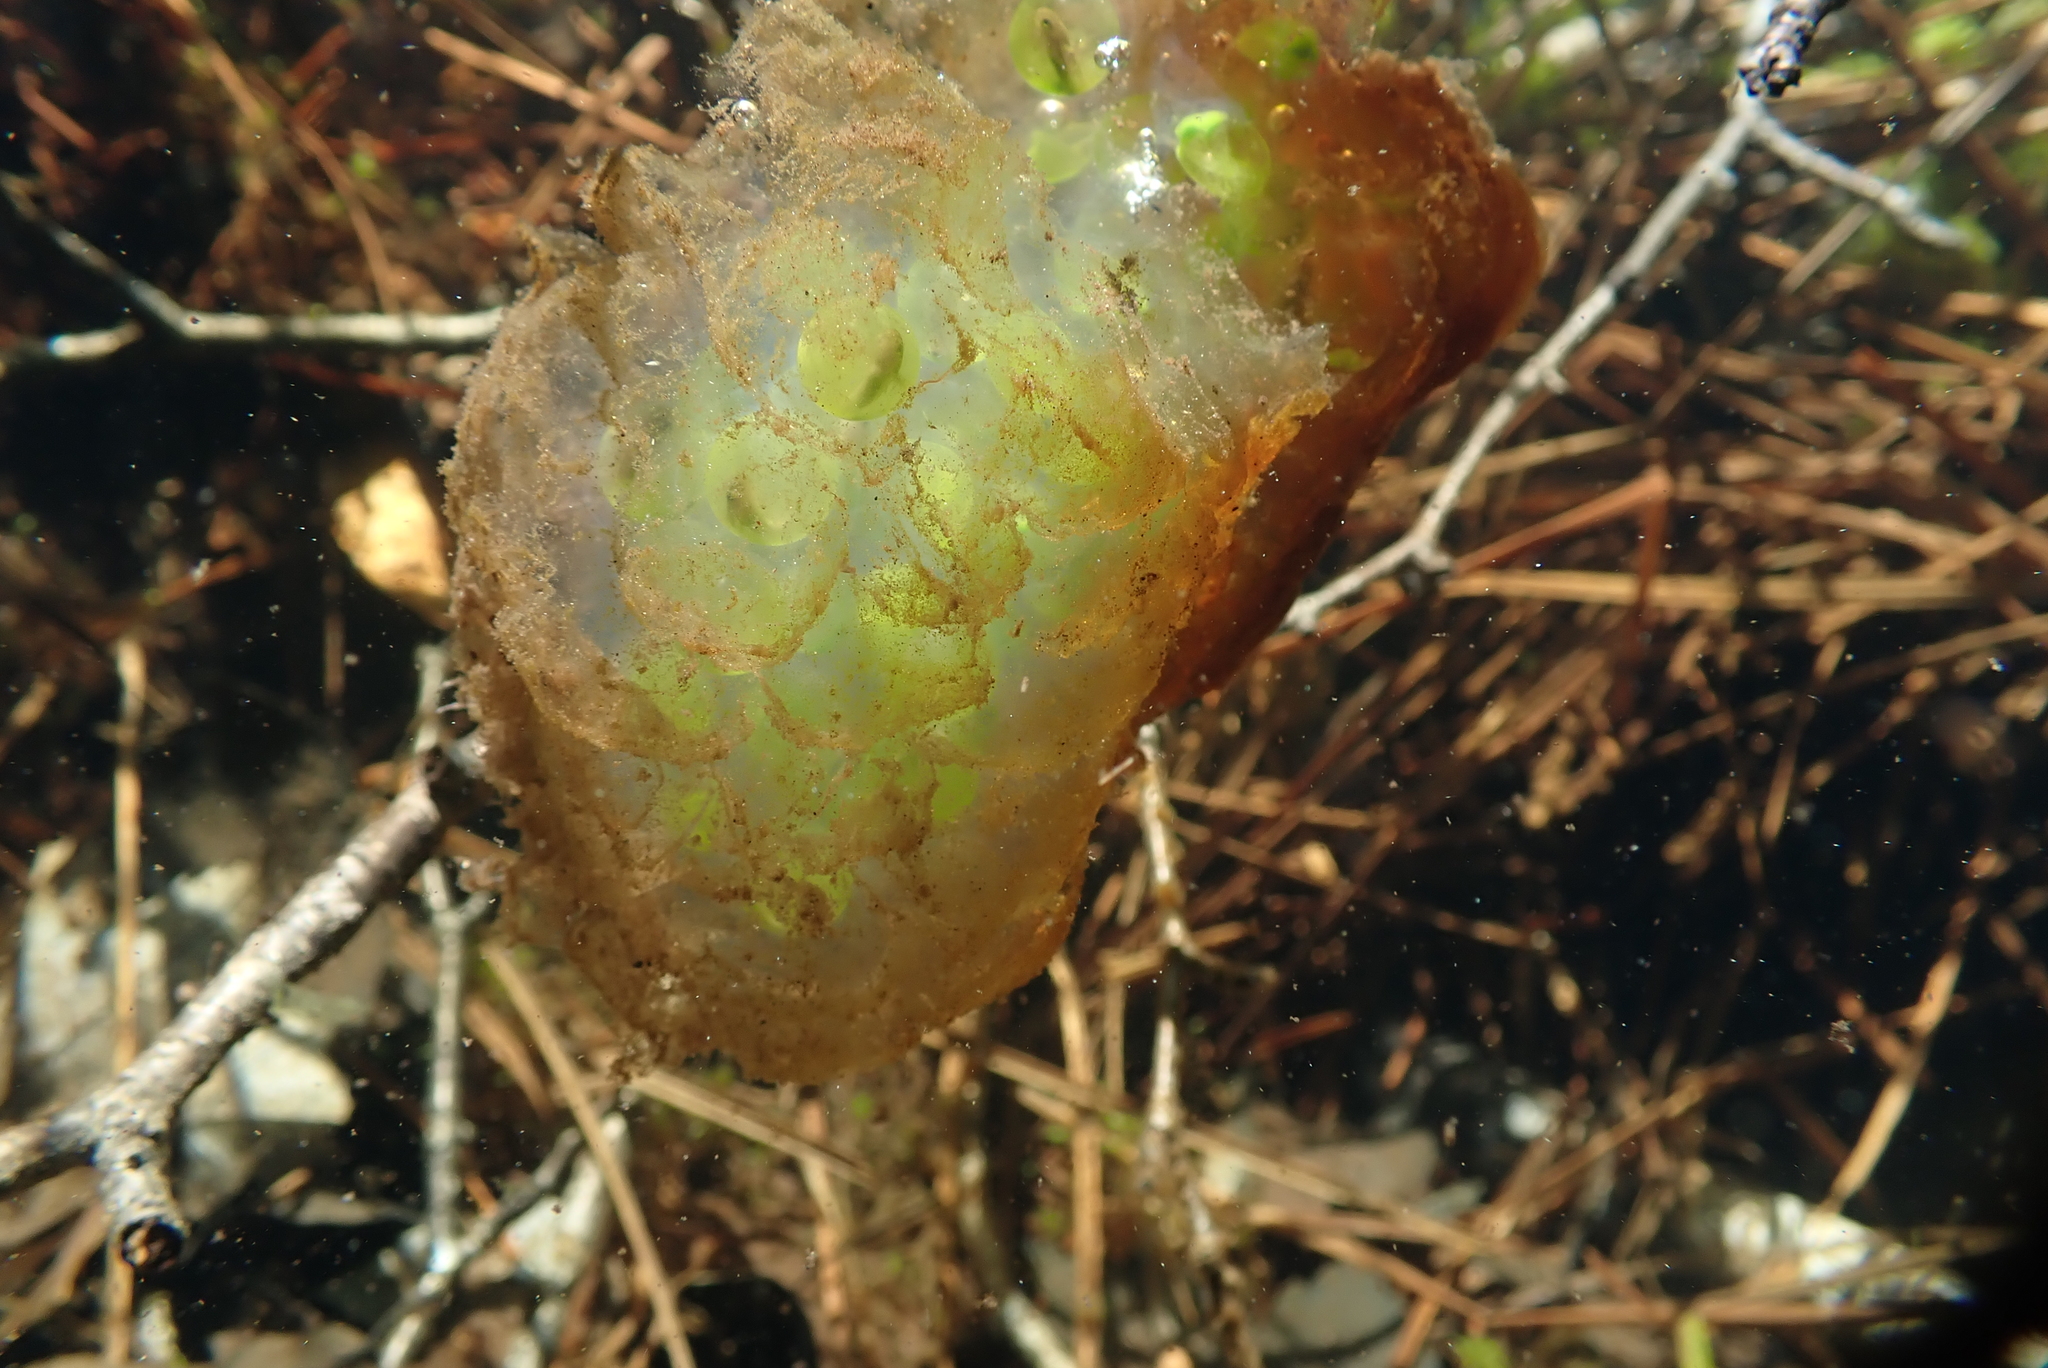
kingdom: Animalia
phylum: Chordata
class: Amphibia
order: Caudata
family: Ambystomatidae
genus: Ambystoma
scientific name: Ambystoma maculatum
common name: Spotted salamander
